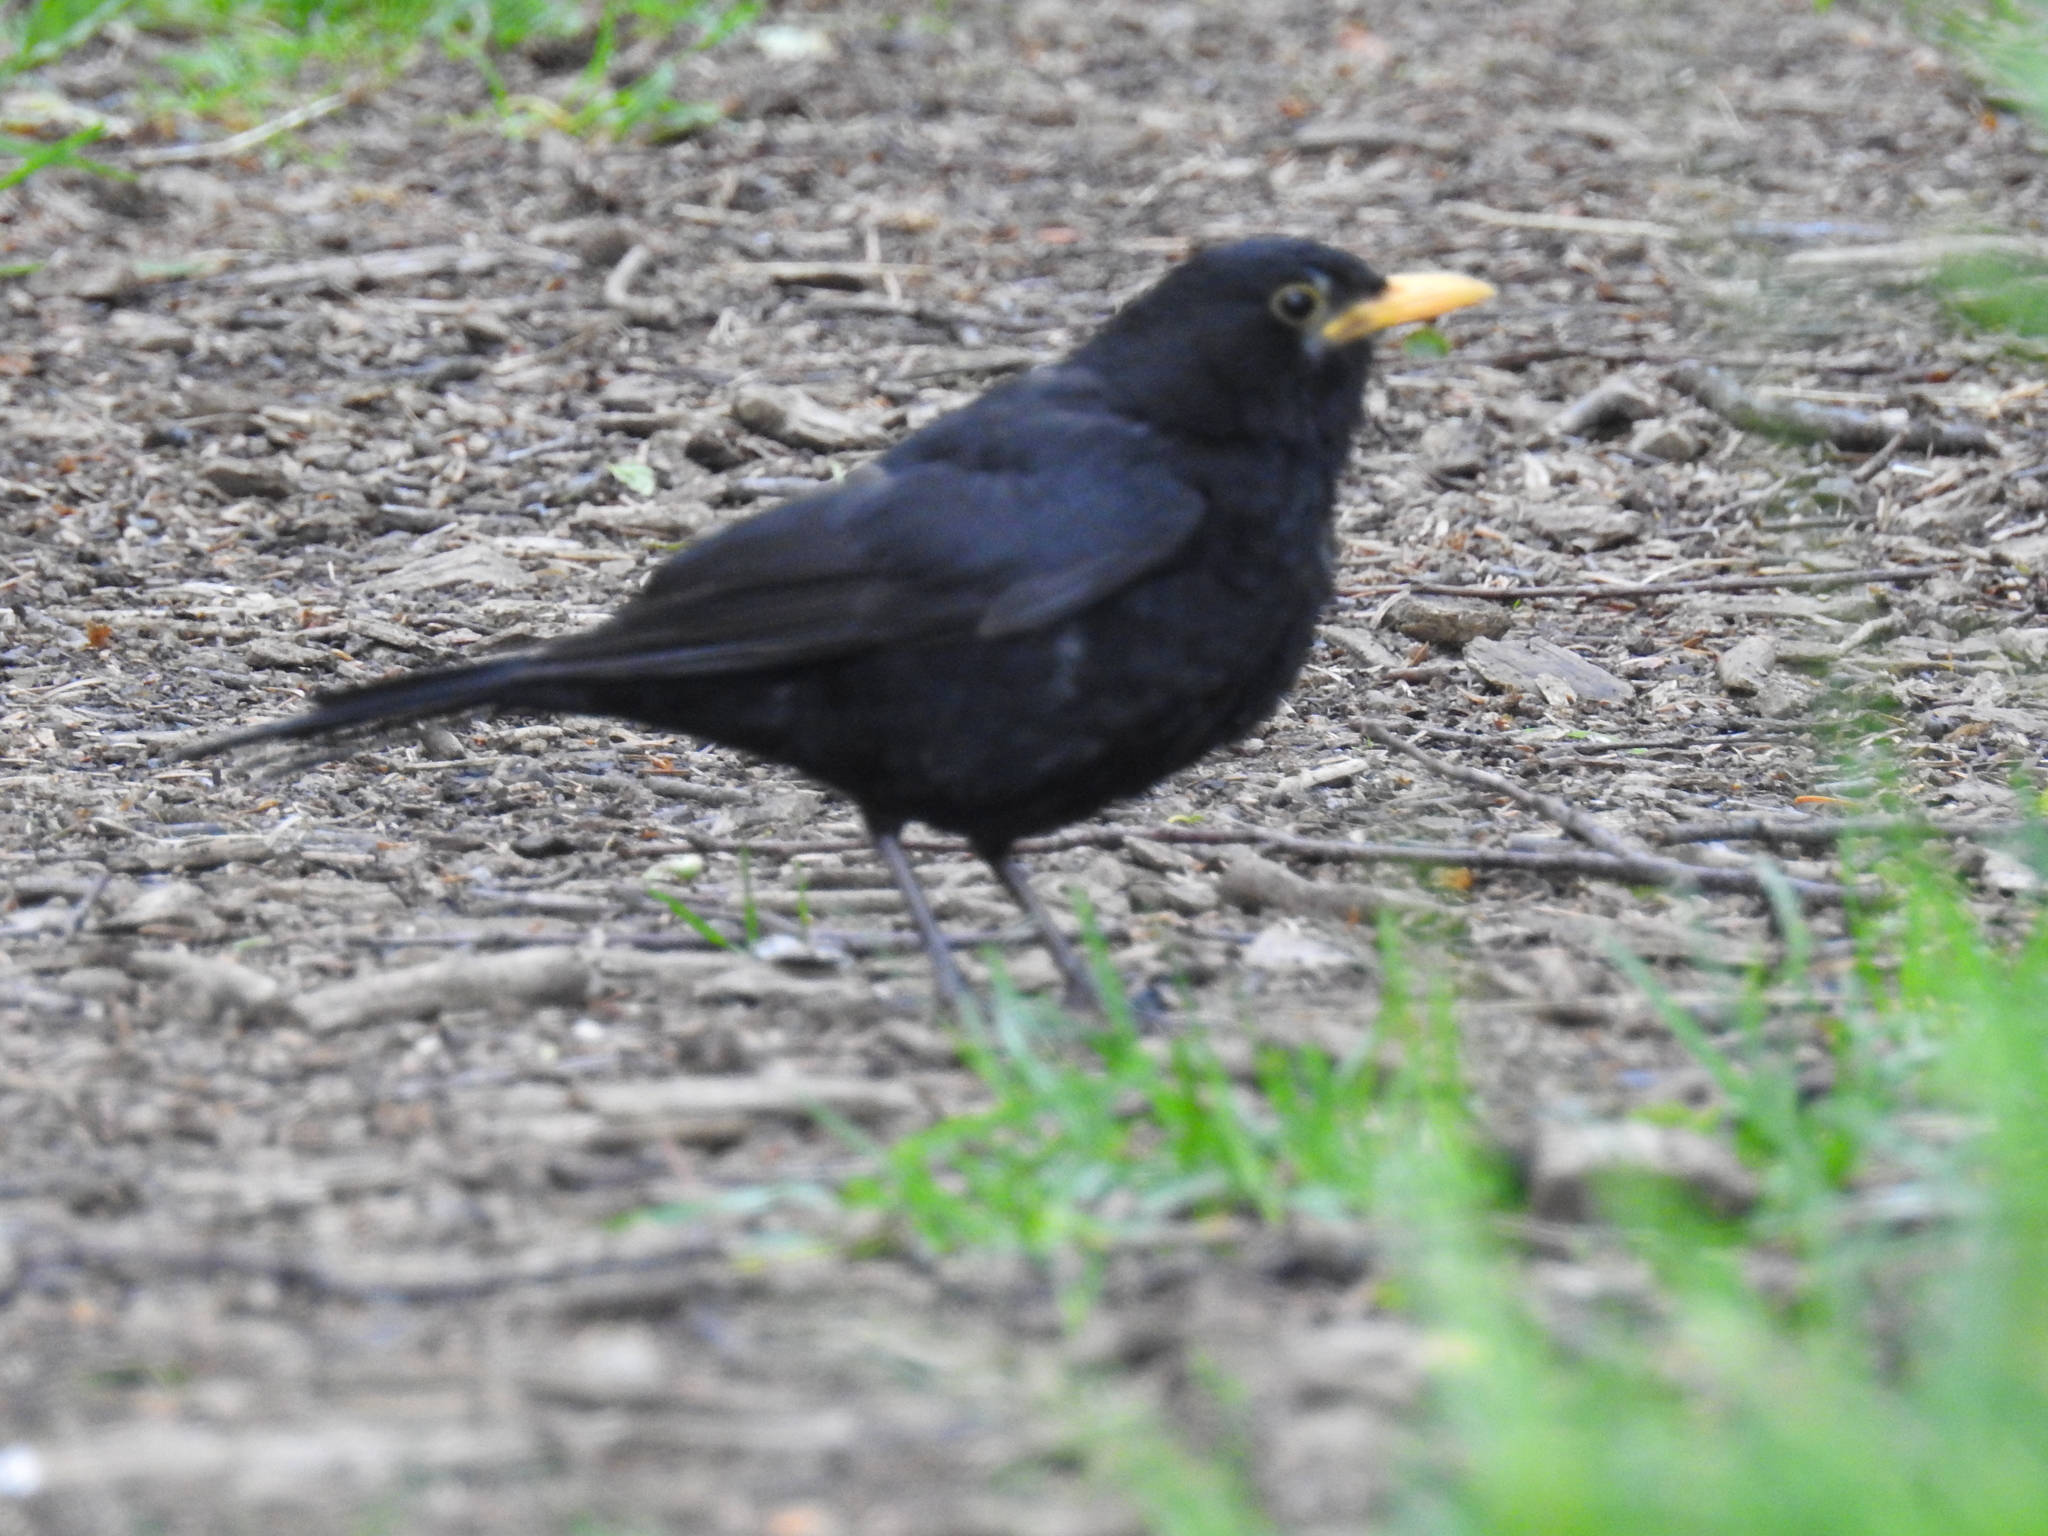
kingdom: Animalia
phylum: Chordata
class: Aves
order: Passeriformes
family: Turdidae
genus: Turdus
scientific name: Turdus merula
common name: Common blackbird
